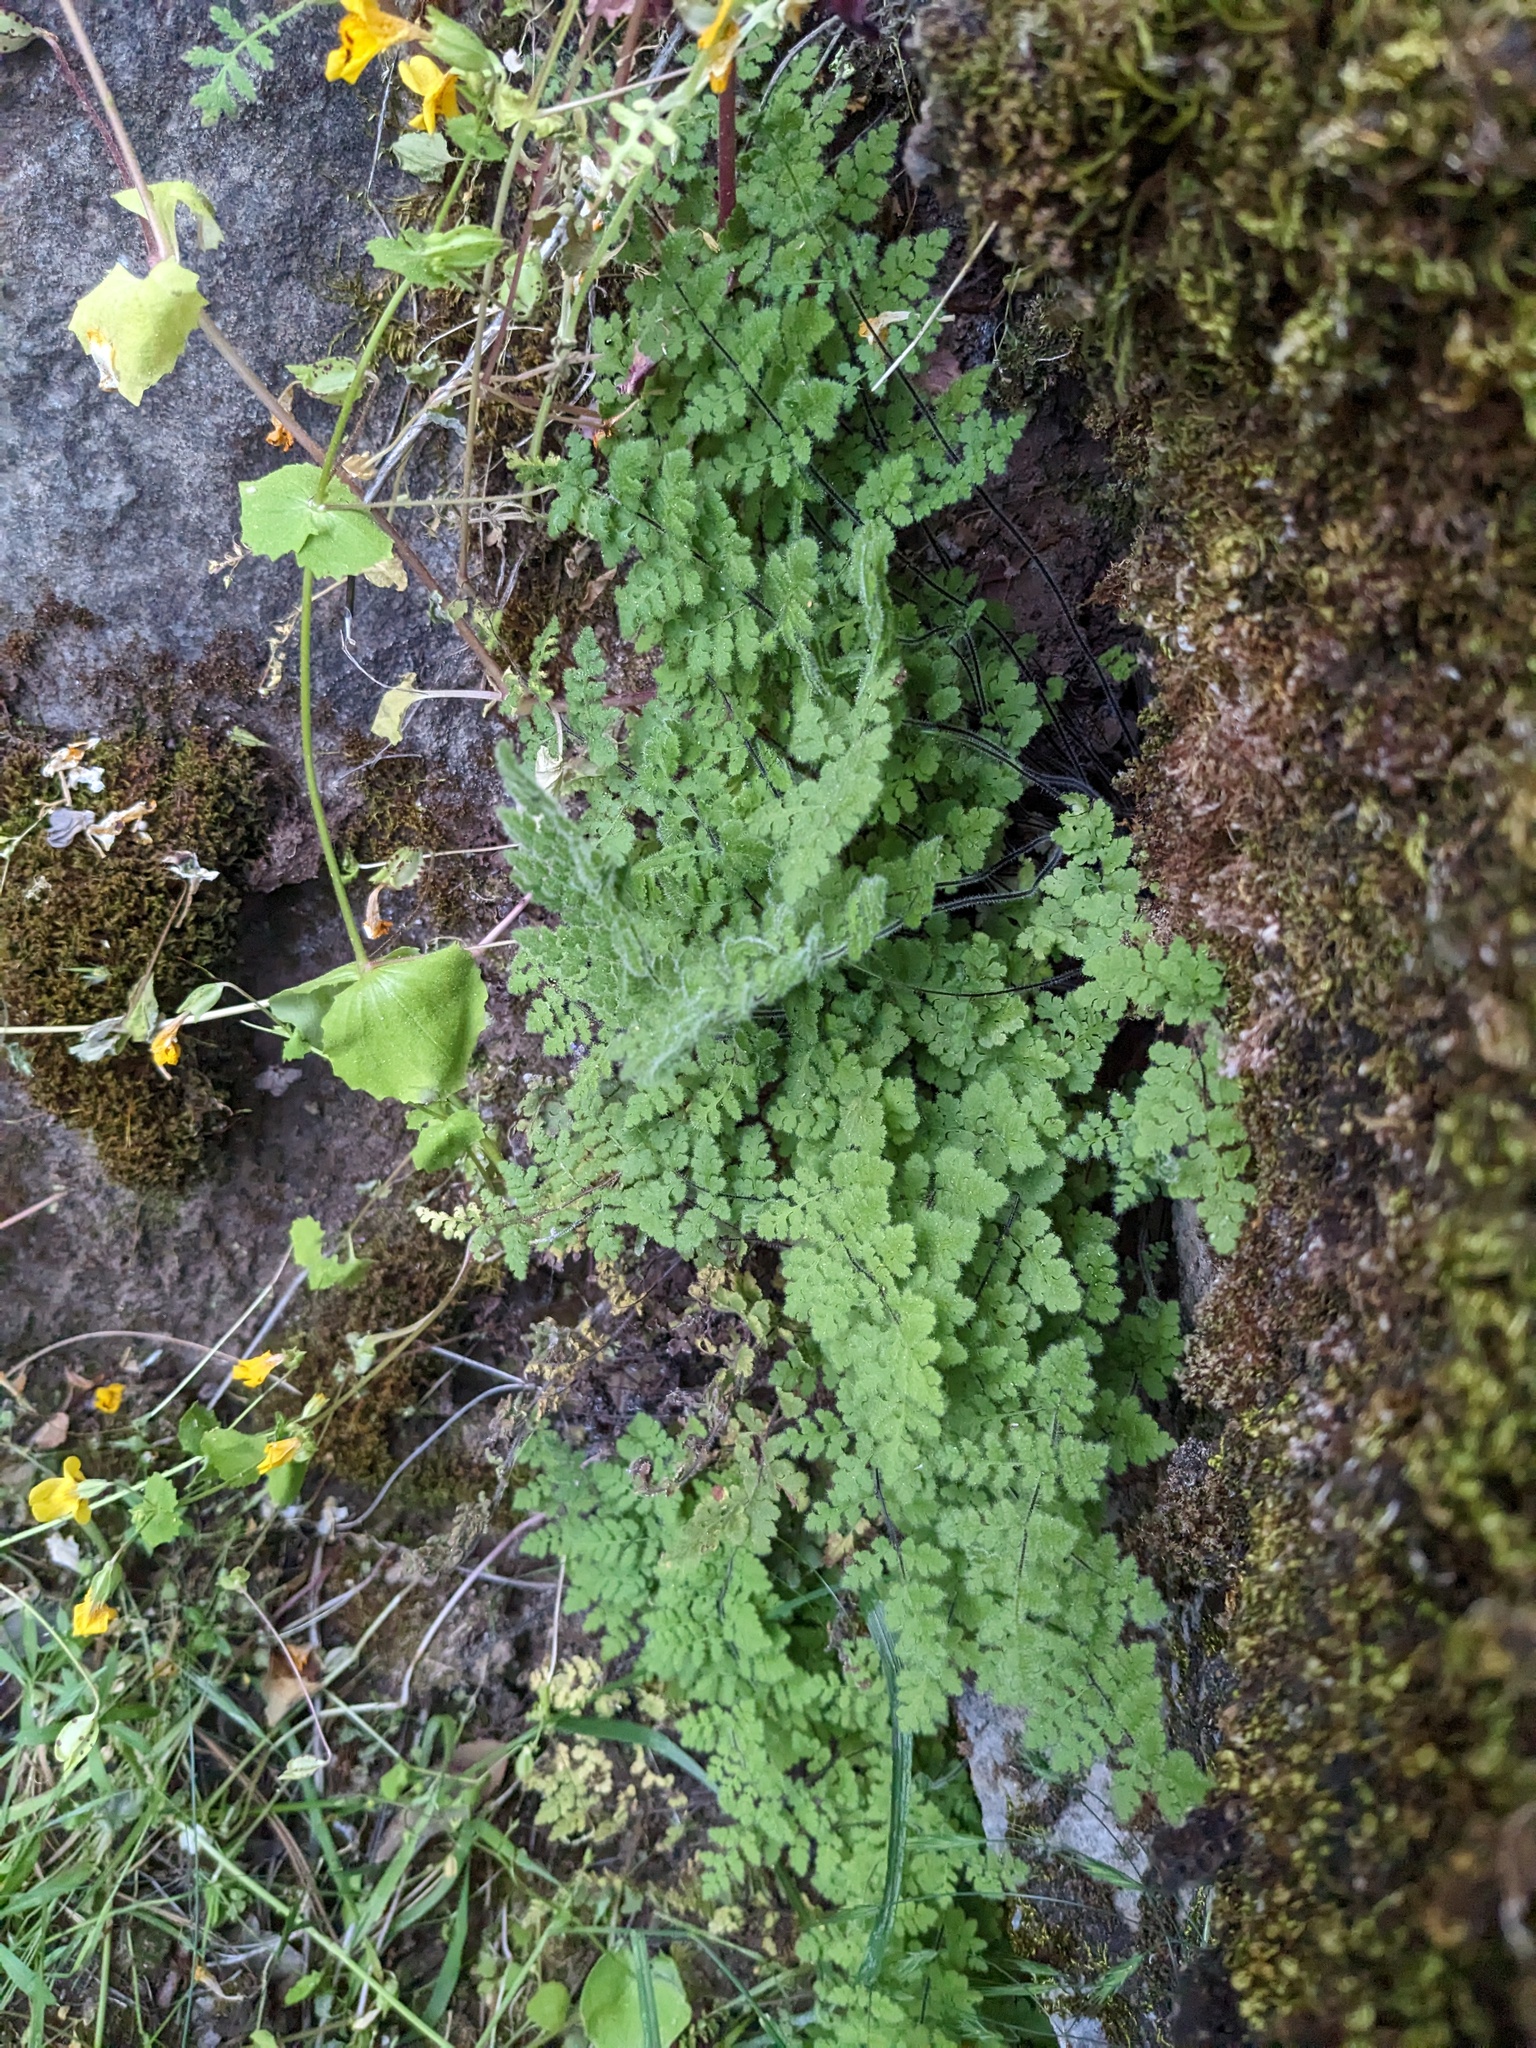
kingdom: Plantae
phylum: Tracheophyta
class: Polypodiopsida
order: Polypodiales
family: Pteridaceae
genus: Myriopteris
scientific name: Myriopteris cooperae
